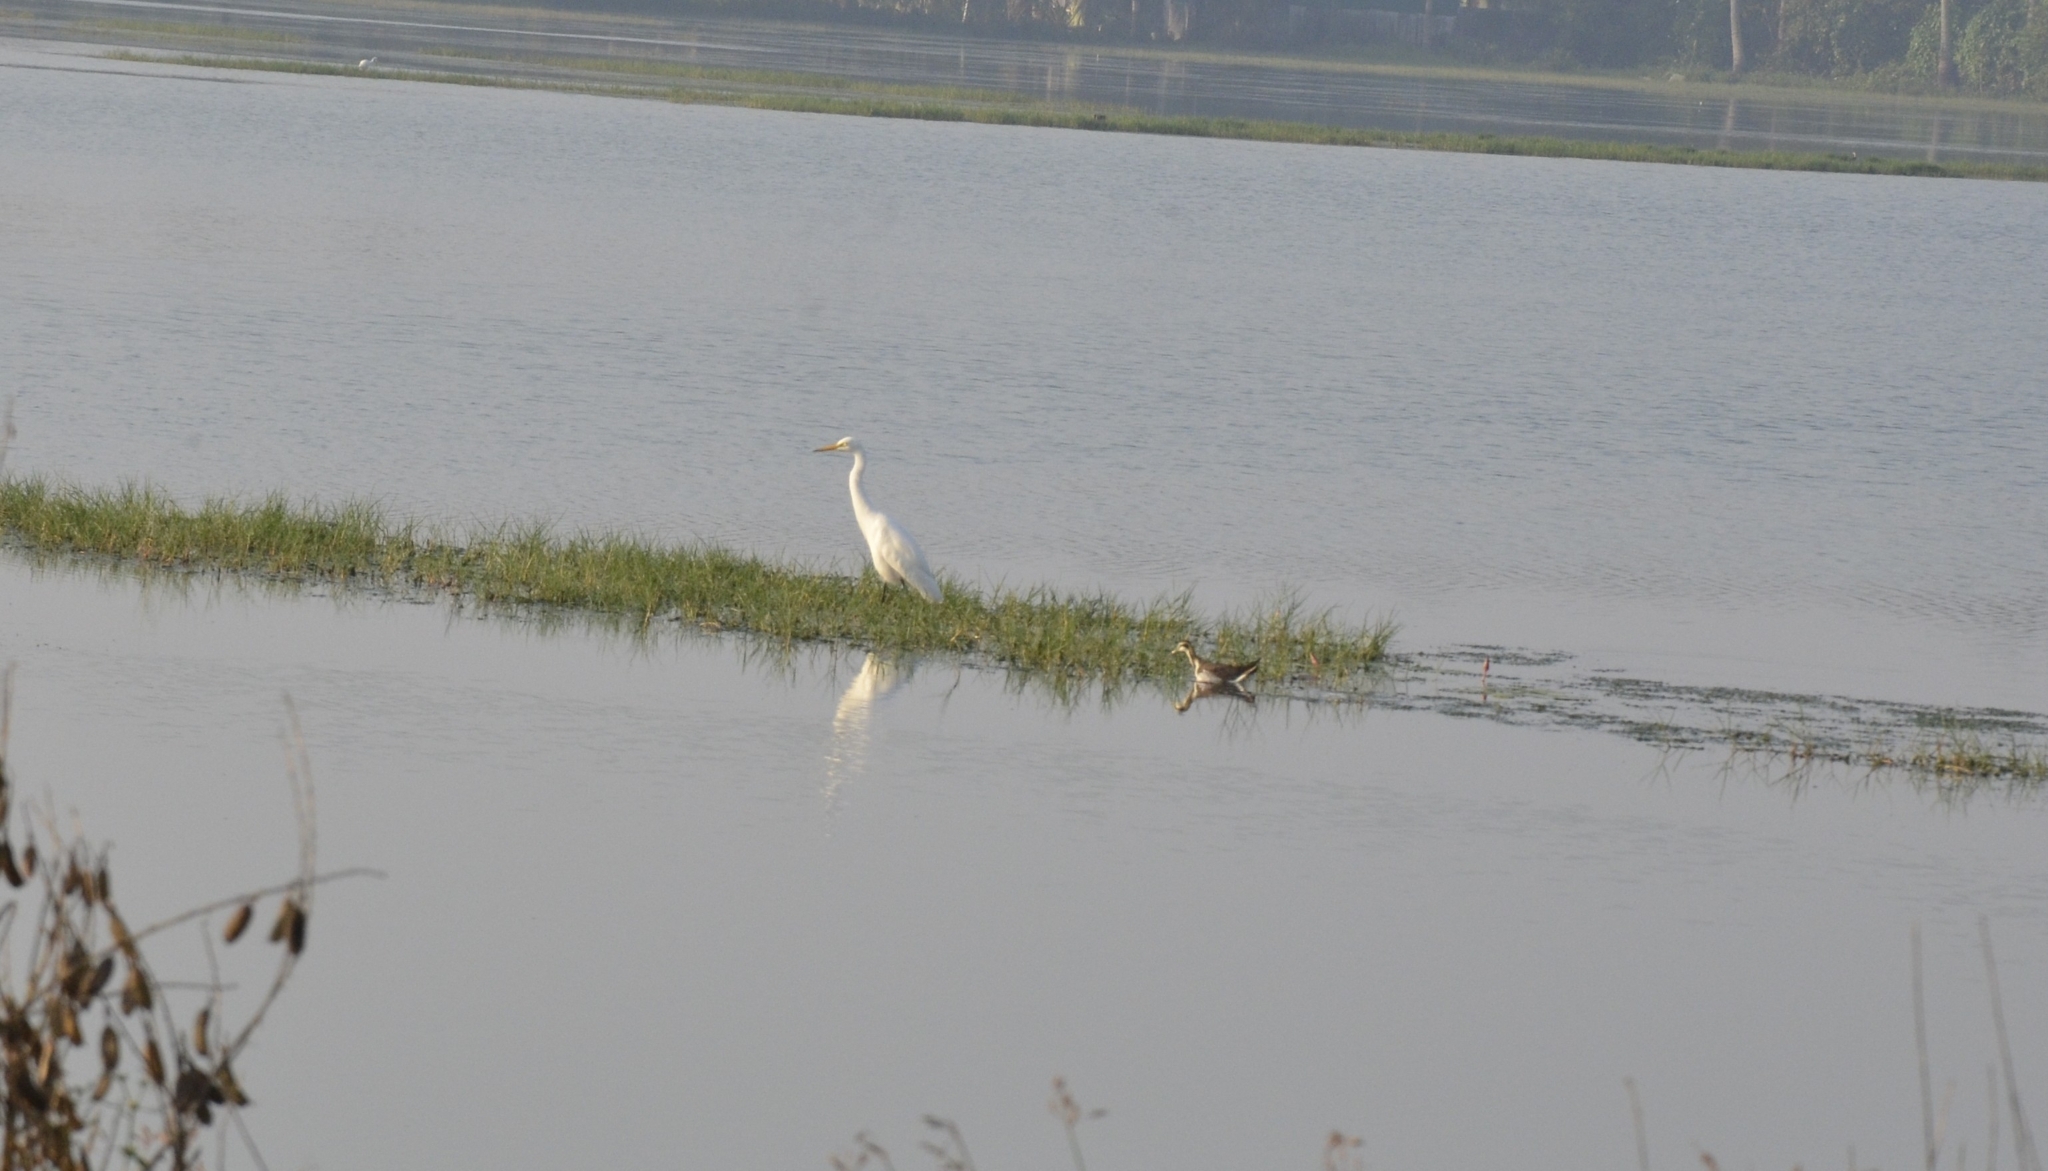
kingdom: Animalia
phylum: Chordata
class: Aves
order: Pelecaniformes
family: Ardeidae
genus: Egretta
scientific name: Egretta intermedia
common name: Intermediate egret
